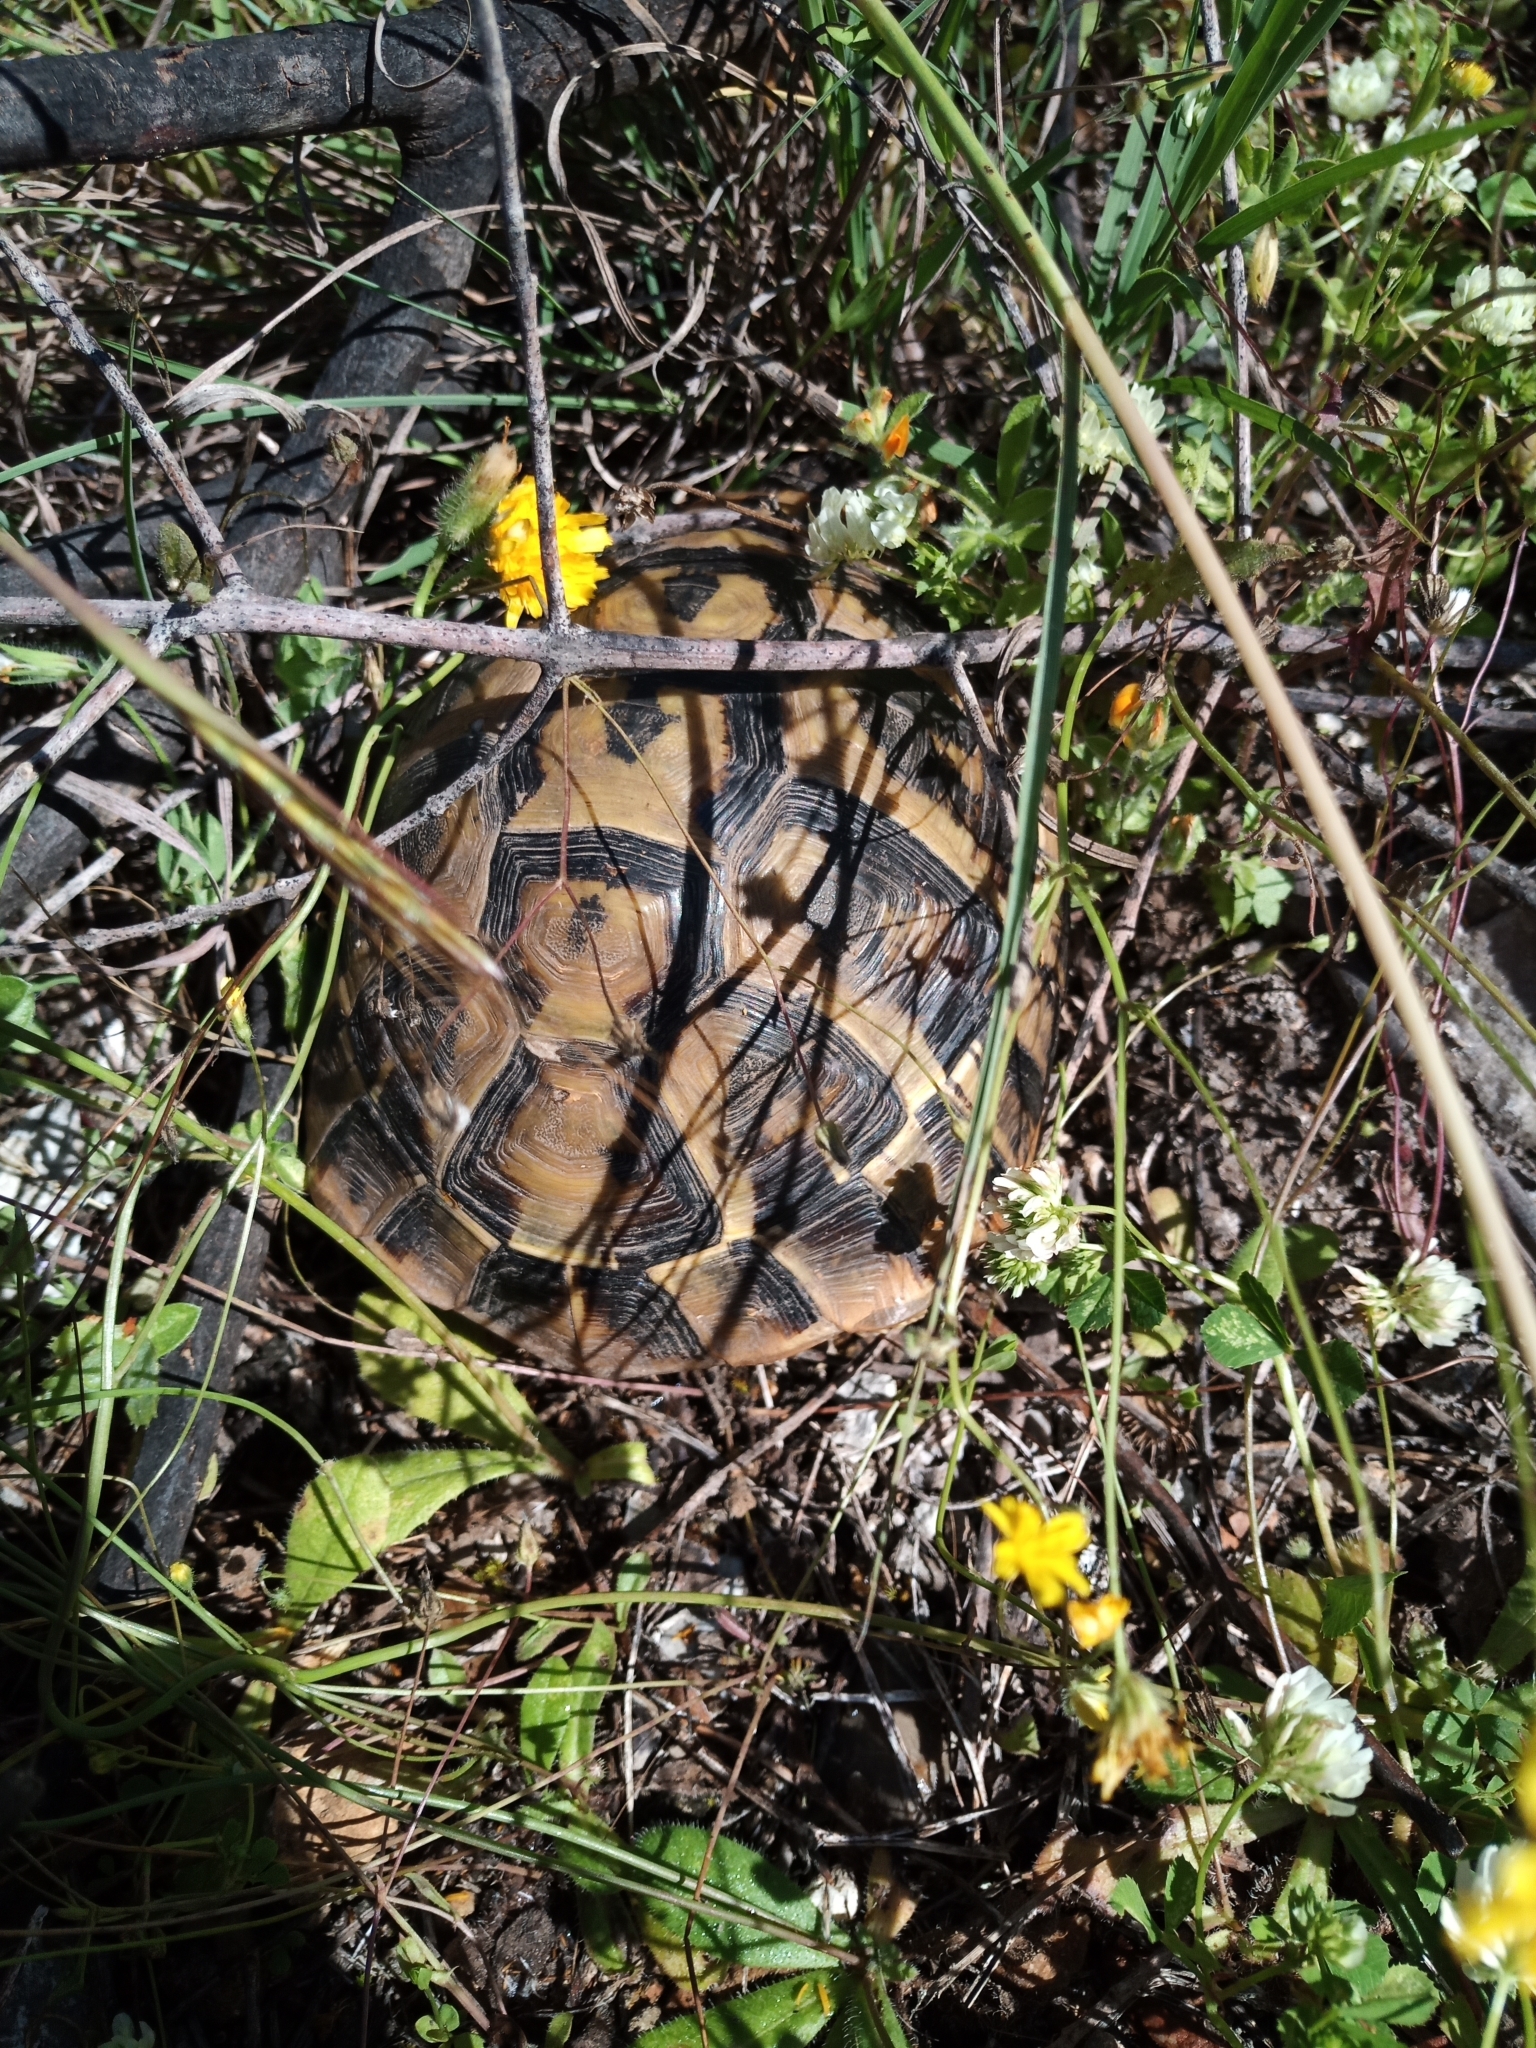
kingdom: Animalia
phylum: Chordata
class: Testudines
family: Testudinidae
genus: Testudo
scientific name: Testudo hermanni
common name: Hermann's tortoise
